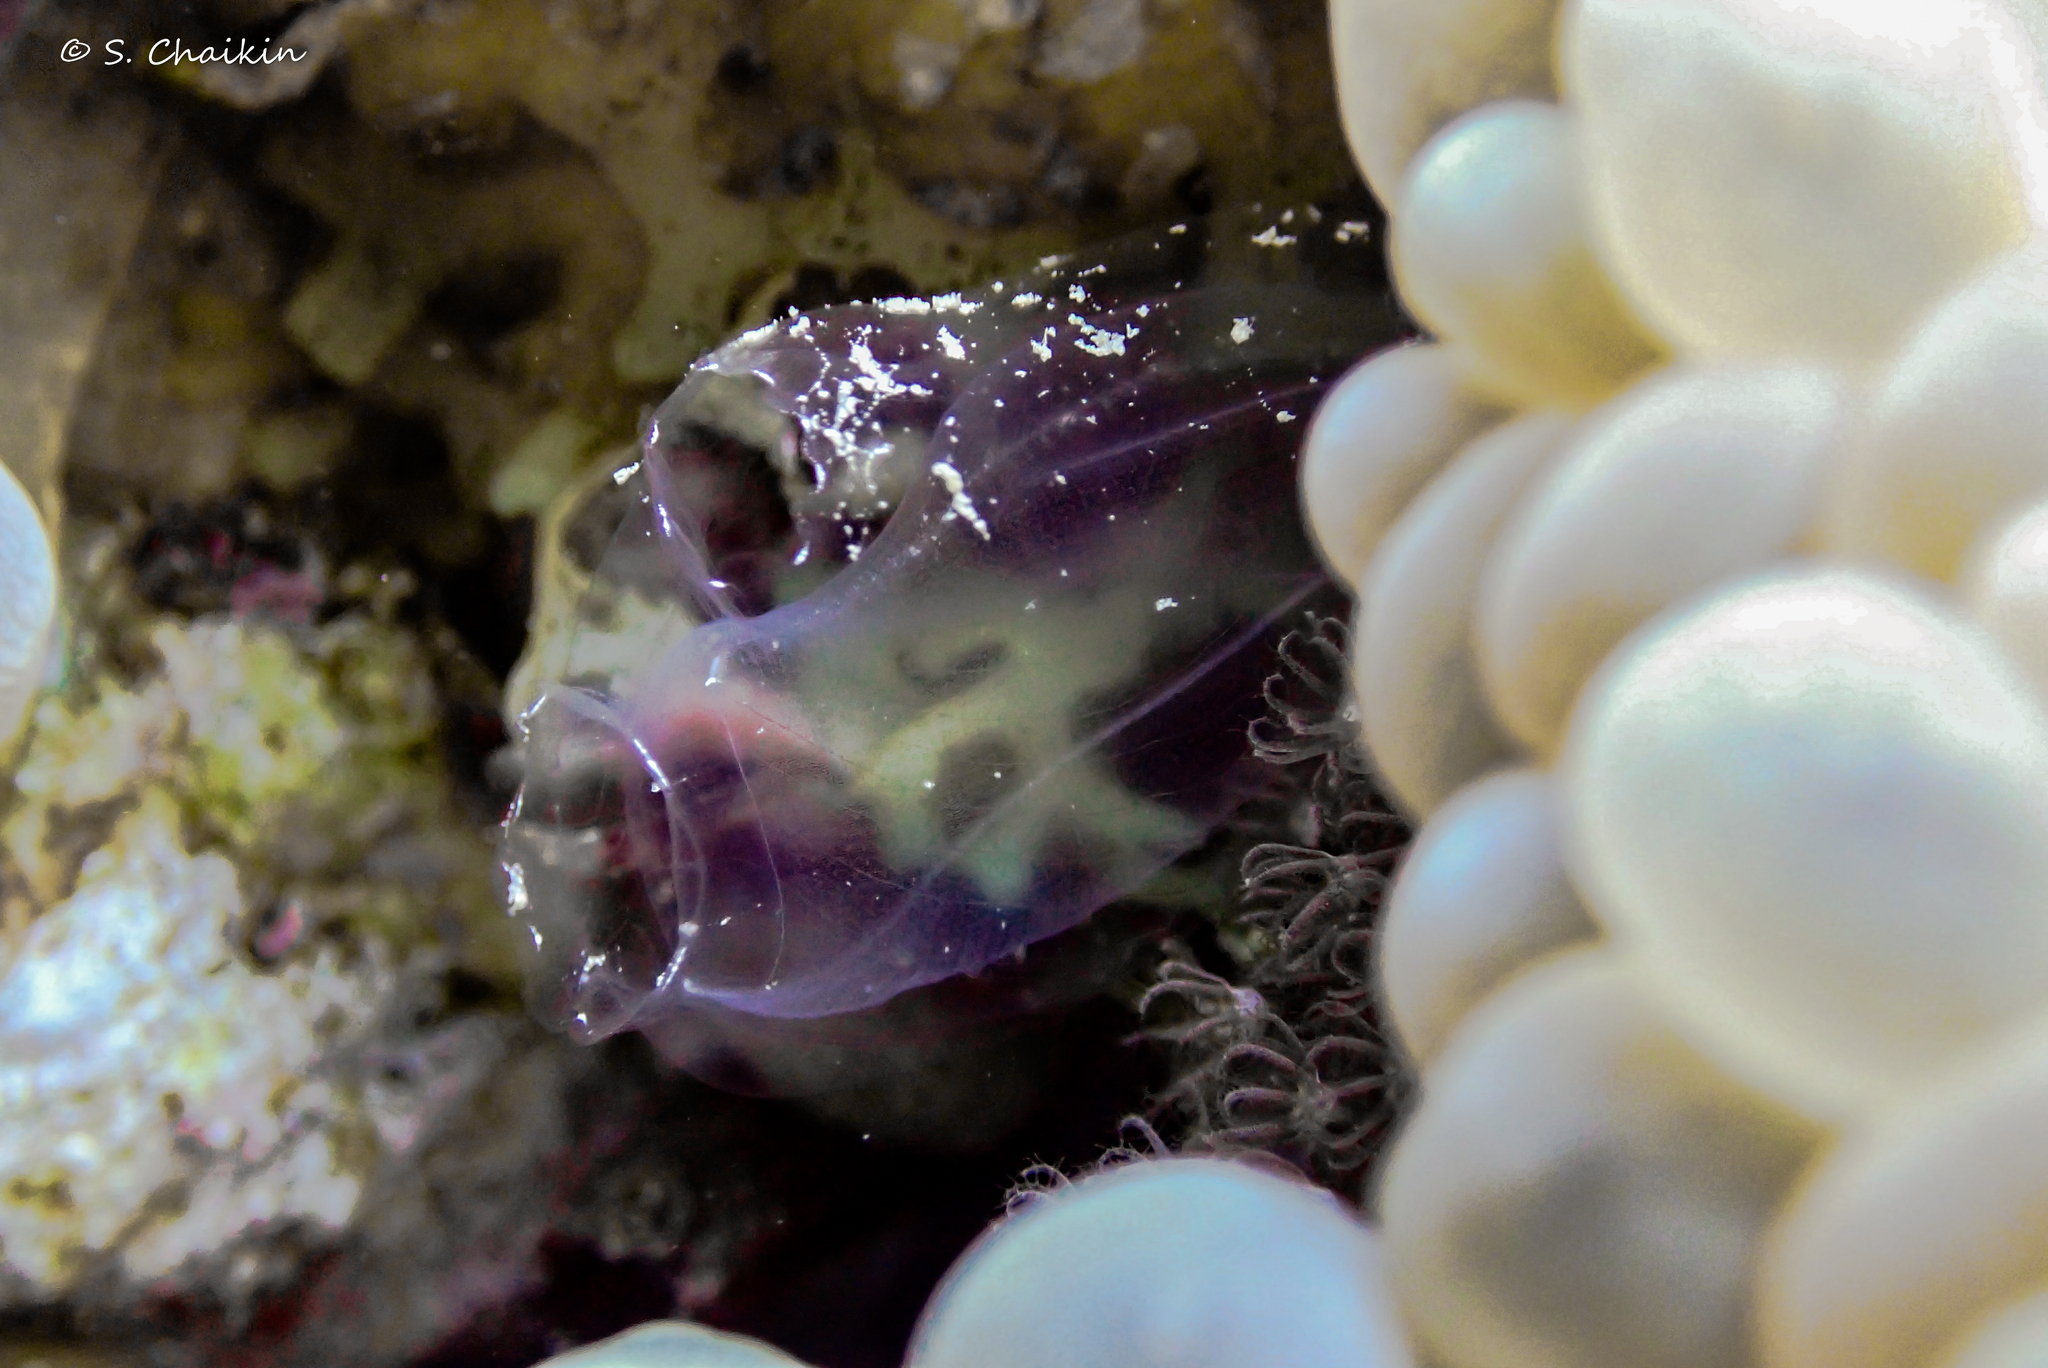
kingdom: Animalia
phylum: Chordata
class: Ascidiacea
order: Aplousobranchia
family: Diazonidae
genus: Rhopalaea
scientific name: Rhopalaea idoneta
